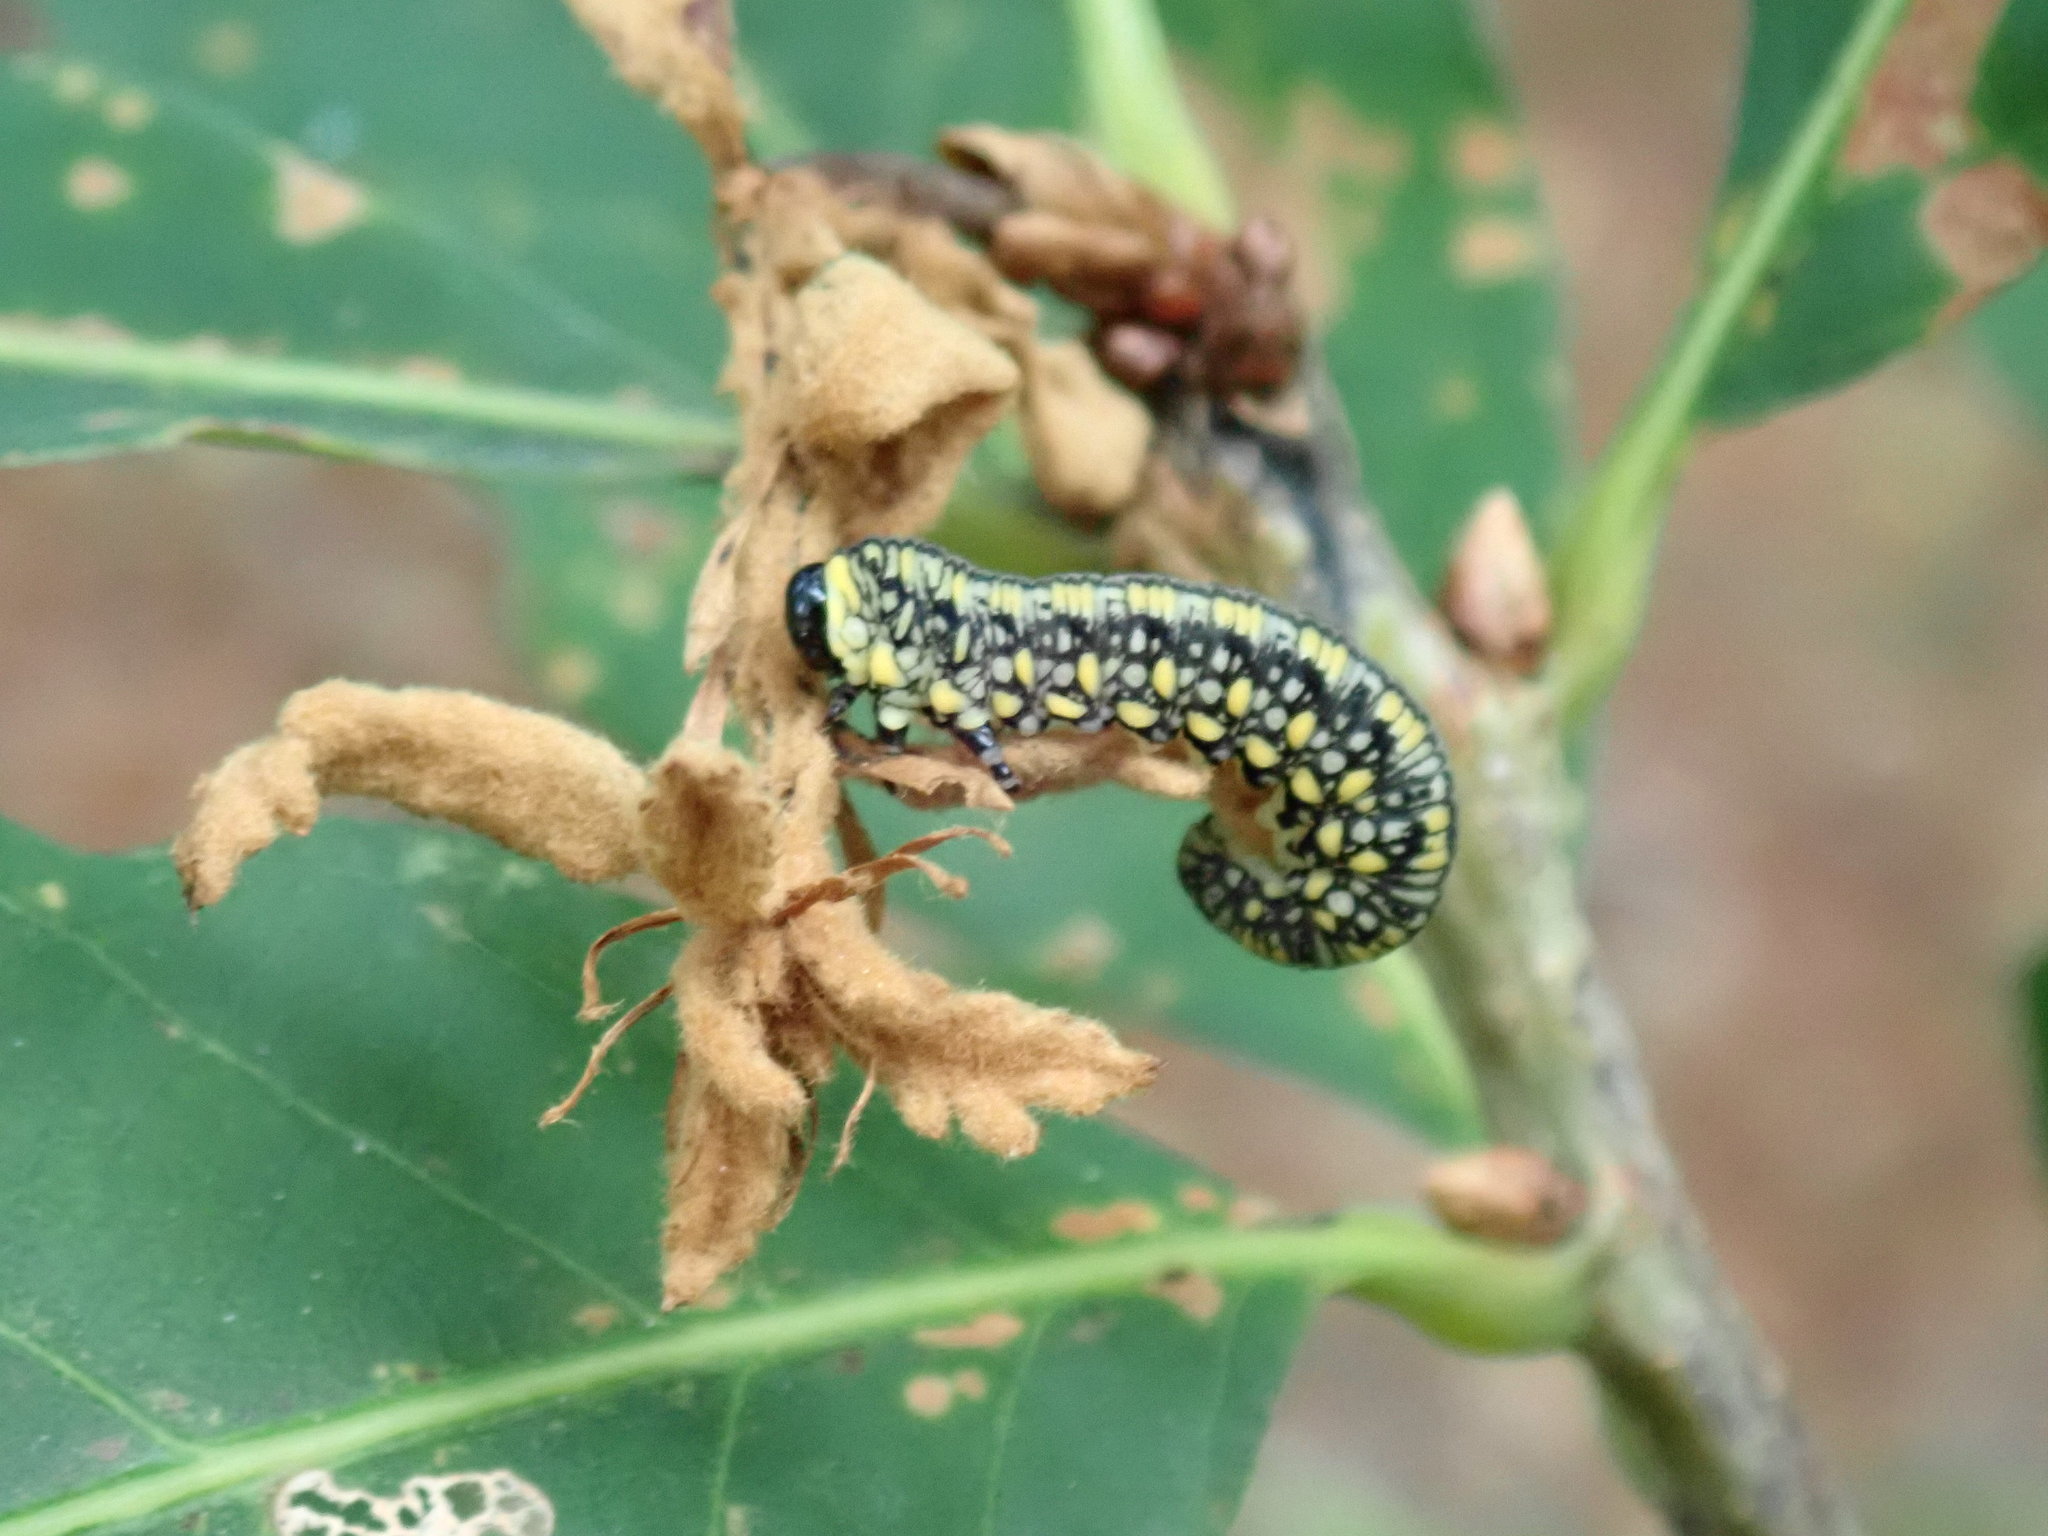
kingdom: Animalia
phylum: Arthropoda
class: Insecta
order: Hymenoptera
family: Diprionidae
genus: Diprion
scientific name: Diprion similis
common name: Pine sawfly
